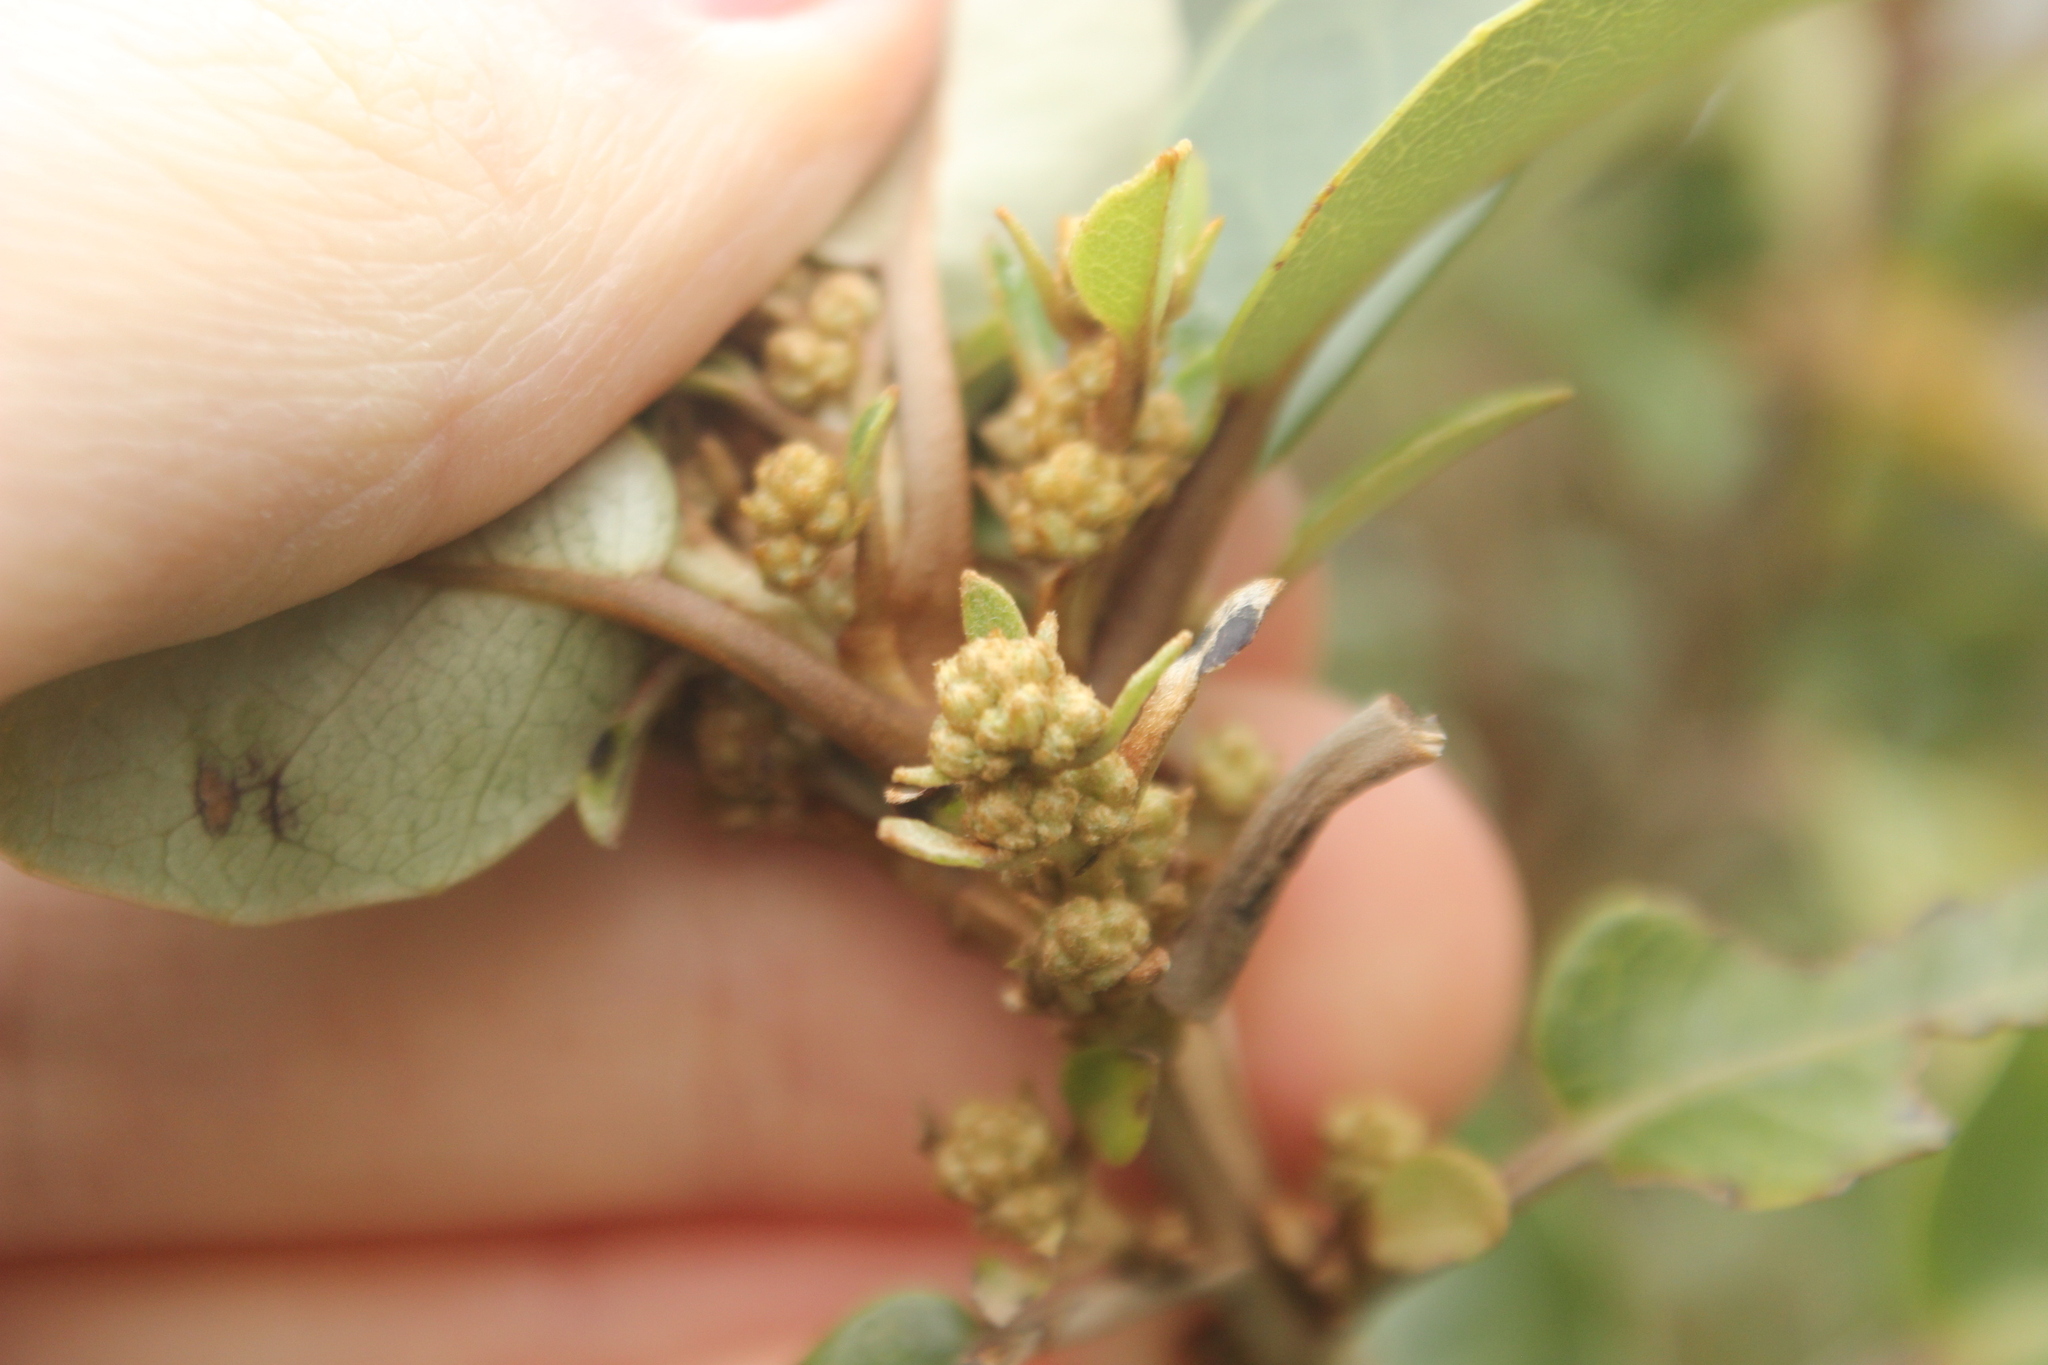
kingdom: Plantae
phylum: Tracheophyta
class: Magnoliopsida
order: Asterales
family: Asteraceae
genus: Olearia
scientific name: Olearia arborescens
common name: Glossy tree daisy
